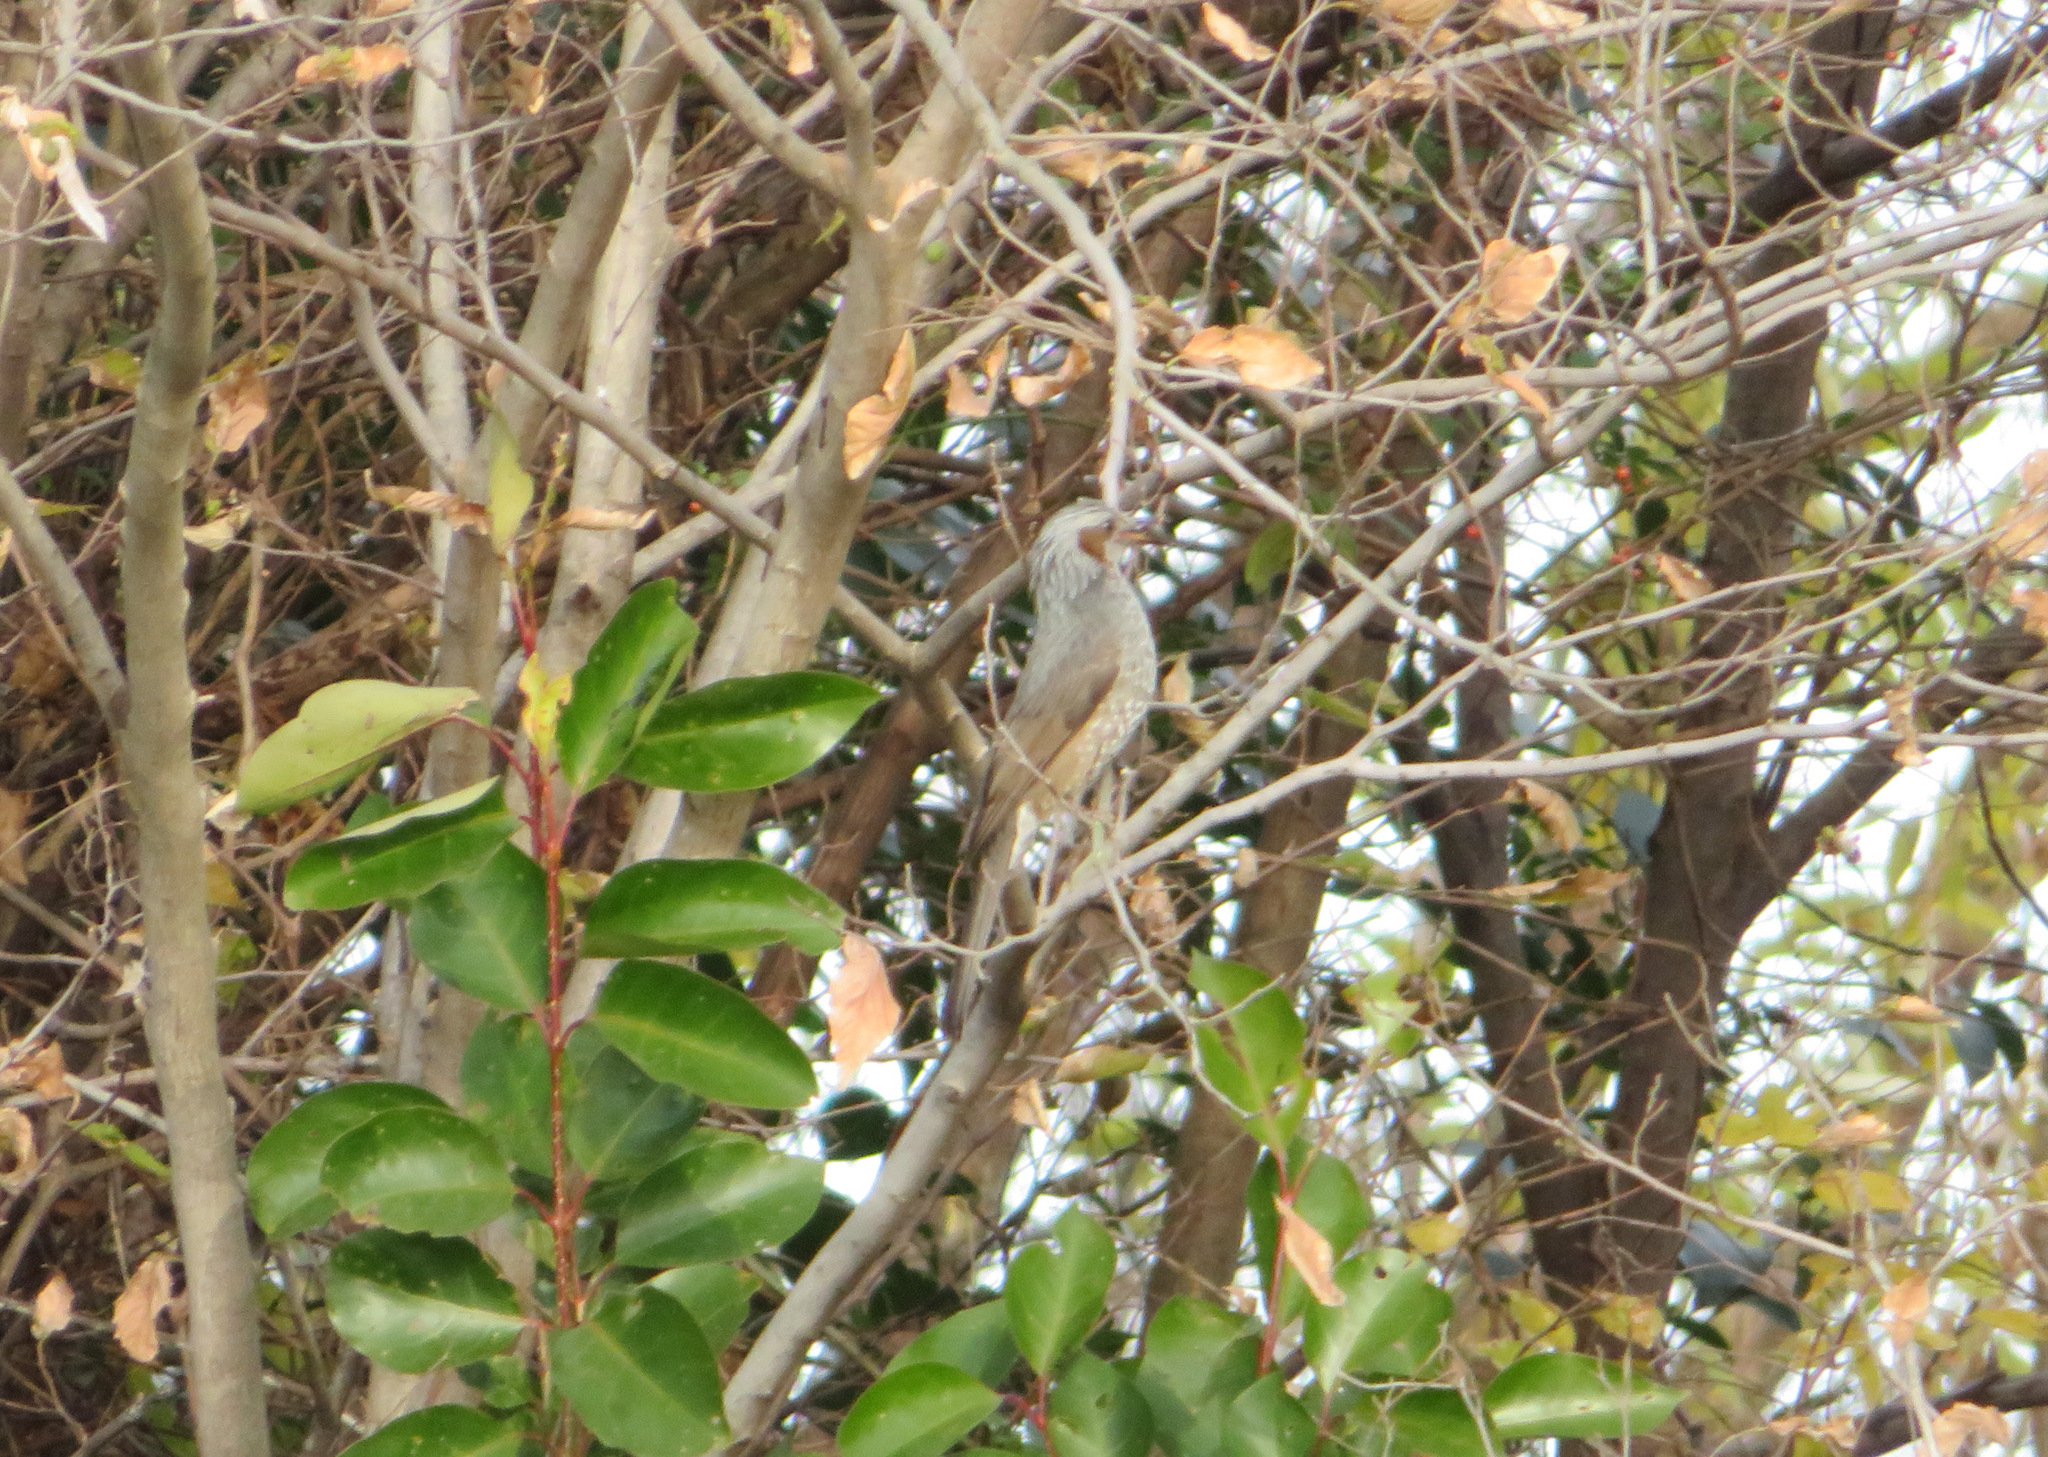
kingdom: Animalia
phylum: Chordata
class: Aves
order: Passeriformes
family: Pycnonotidae
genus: Hypsipetes
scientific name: Hypsipetes amaurotis
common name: Brown-eared bulbul
